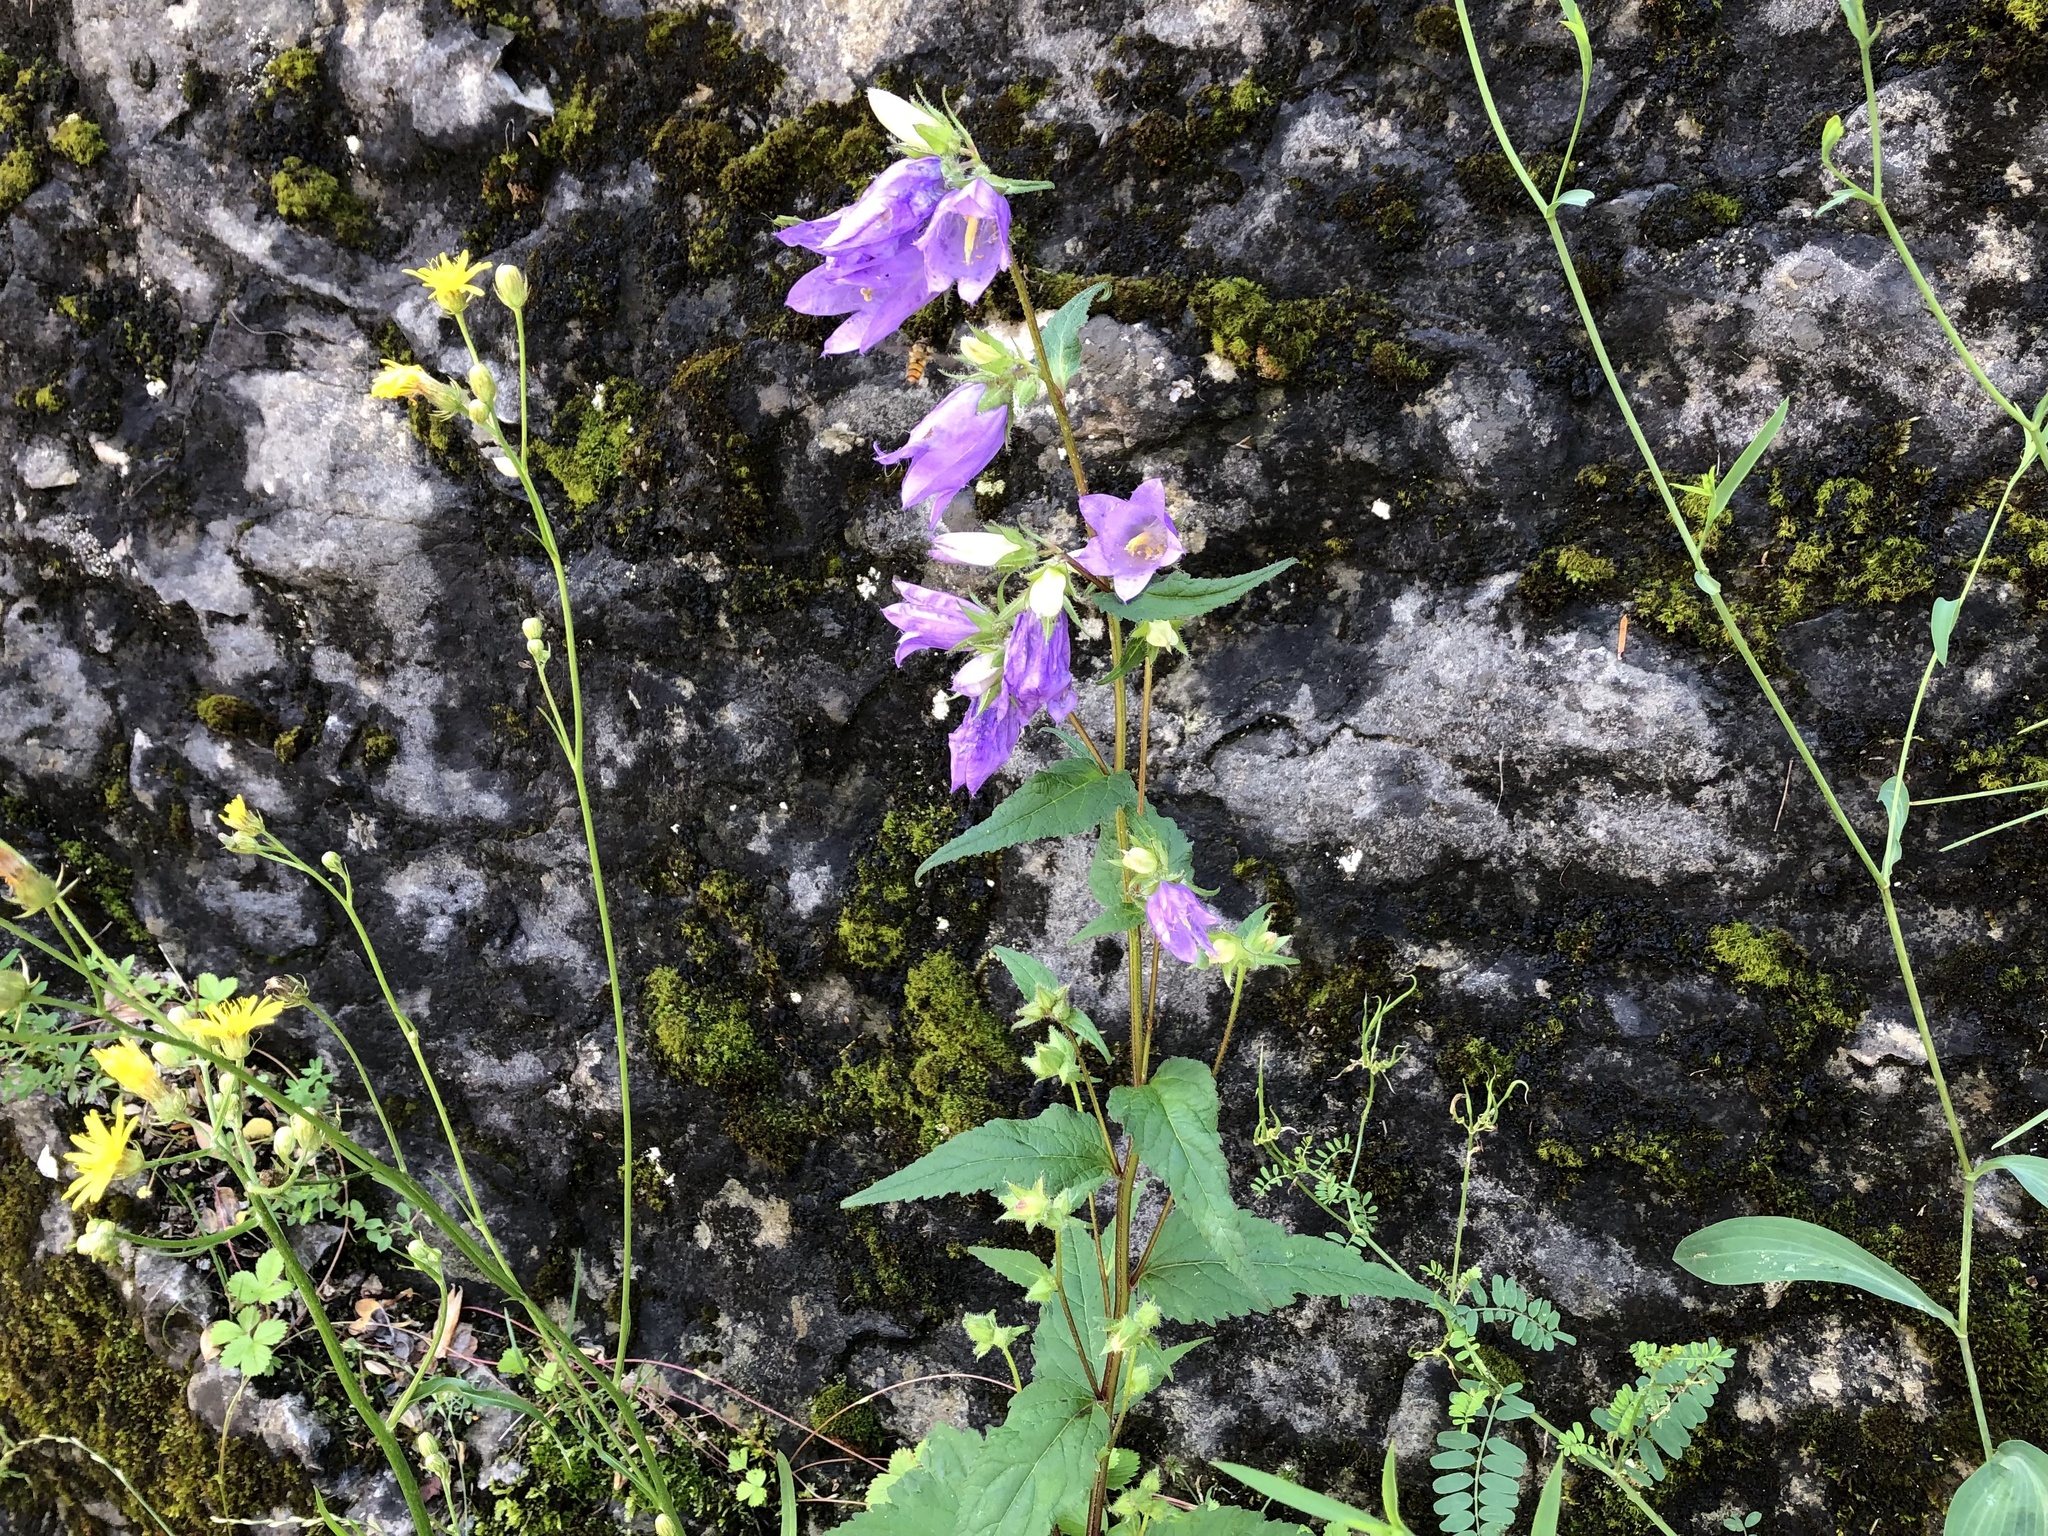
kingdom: Plantae
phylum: Tracheophyta
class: Magnoliopsida
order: Asterales
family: Campanulaceae
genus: Campanula
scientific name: Campanula trachelium
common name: Nettle-leaved bellflower
